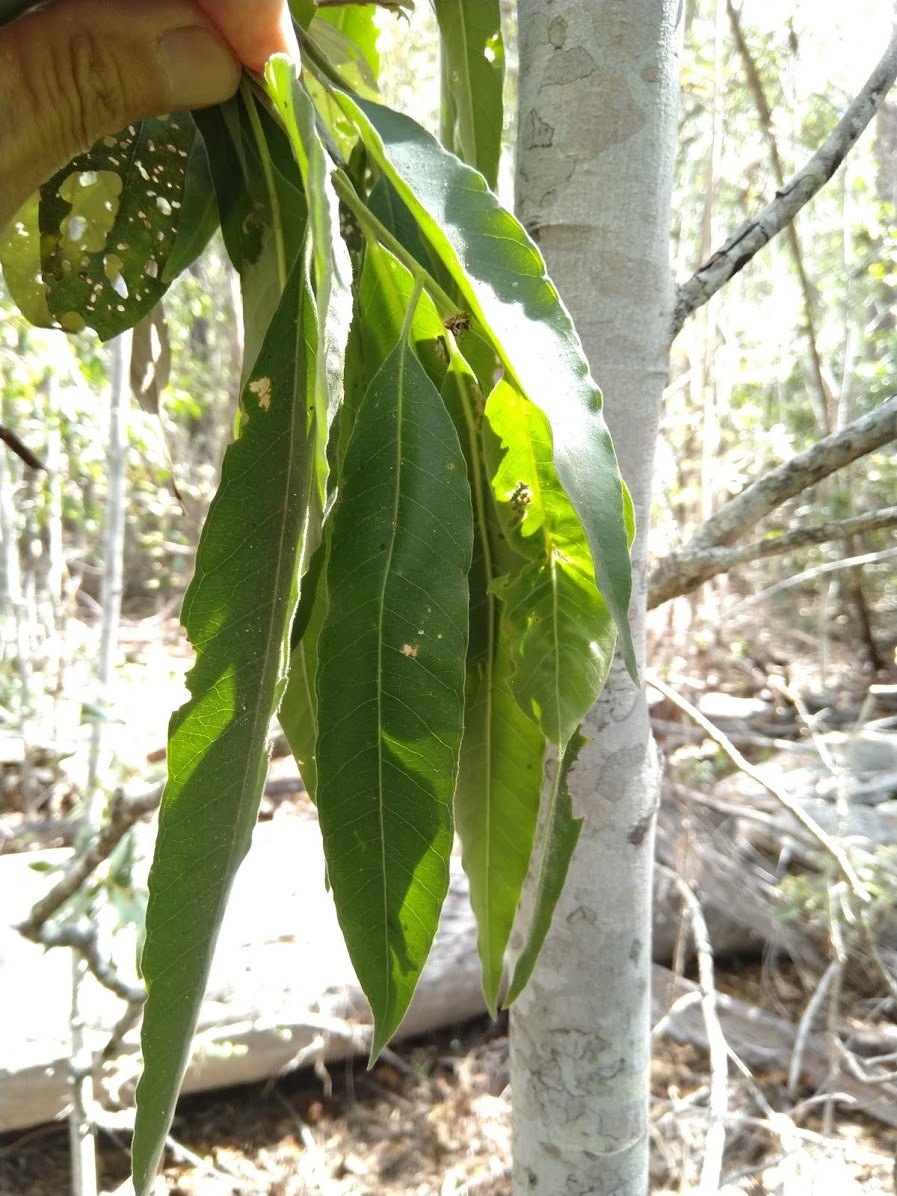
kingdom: Plantae
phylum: Tracheophyta
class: Magnoliopsida
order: Gentianales
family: Apocynaceae
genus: Alstonia
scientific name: Alstonia mollis
